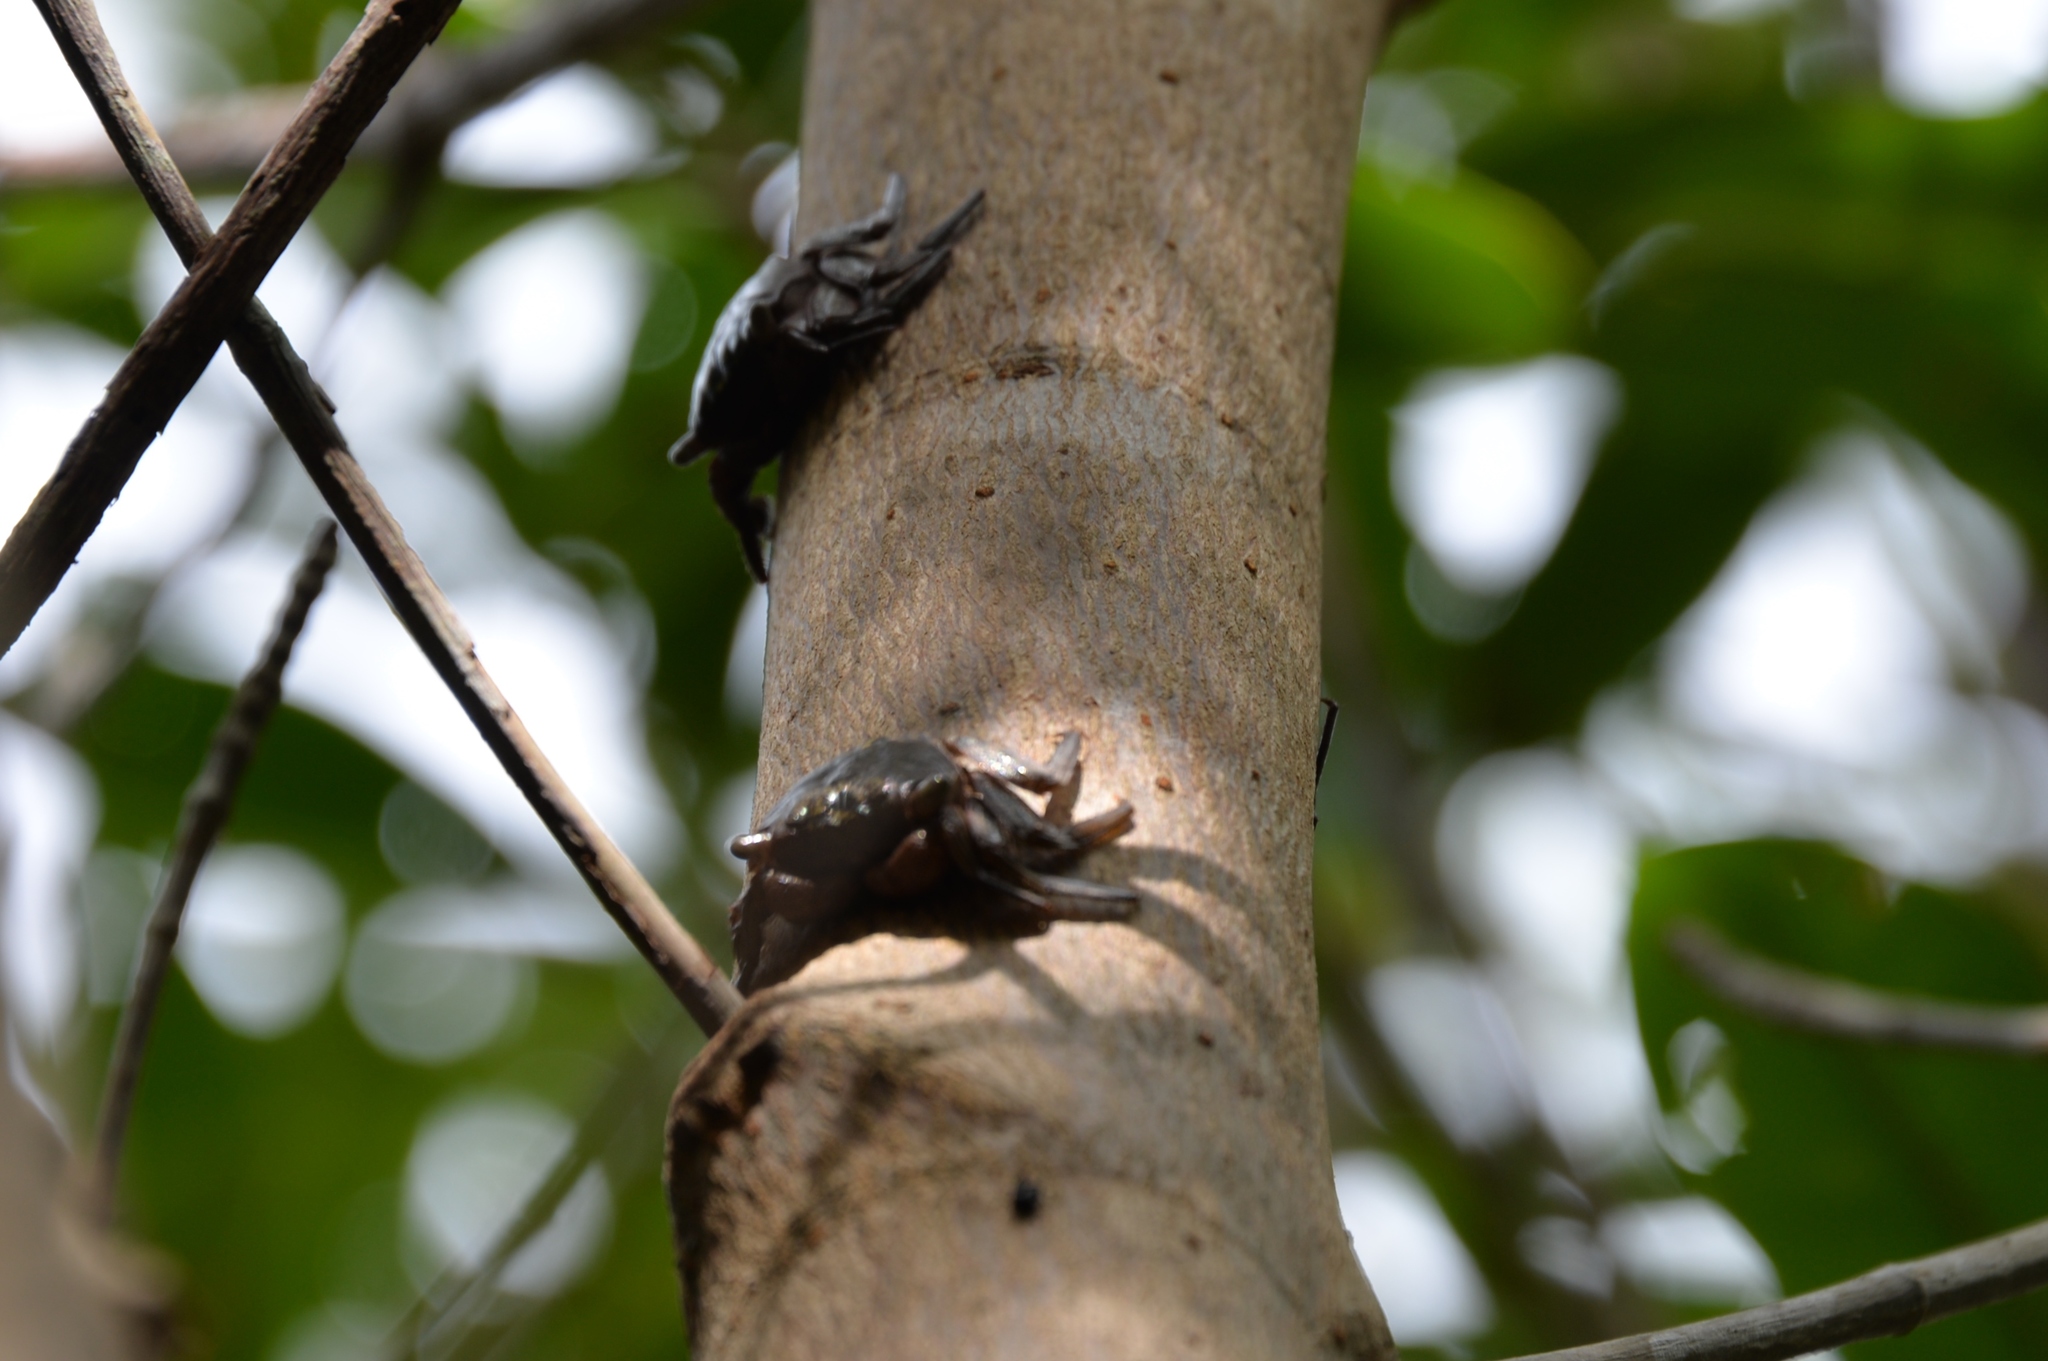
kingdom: Animalia
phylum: Arthropoda
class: Malacostraca
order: Decapoda
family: Sesarmidae
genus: Aratus
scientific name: Aratus pisonii
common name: Mangrove crab
